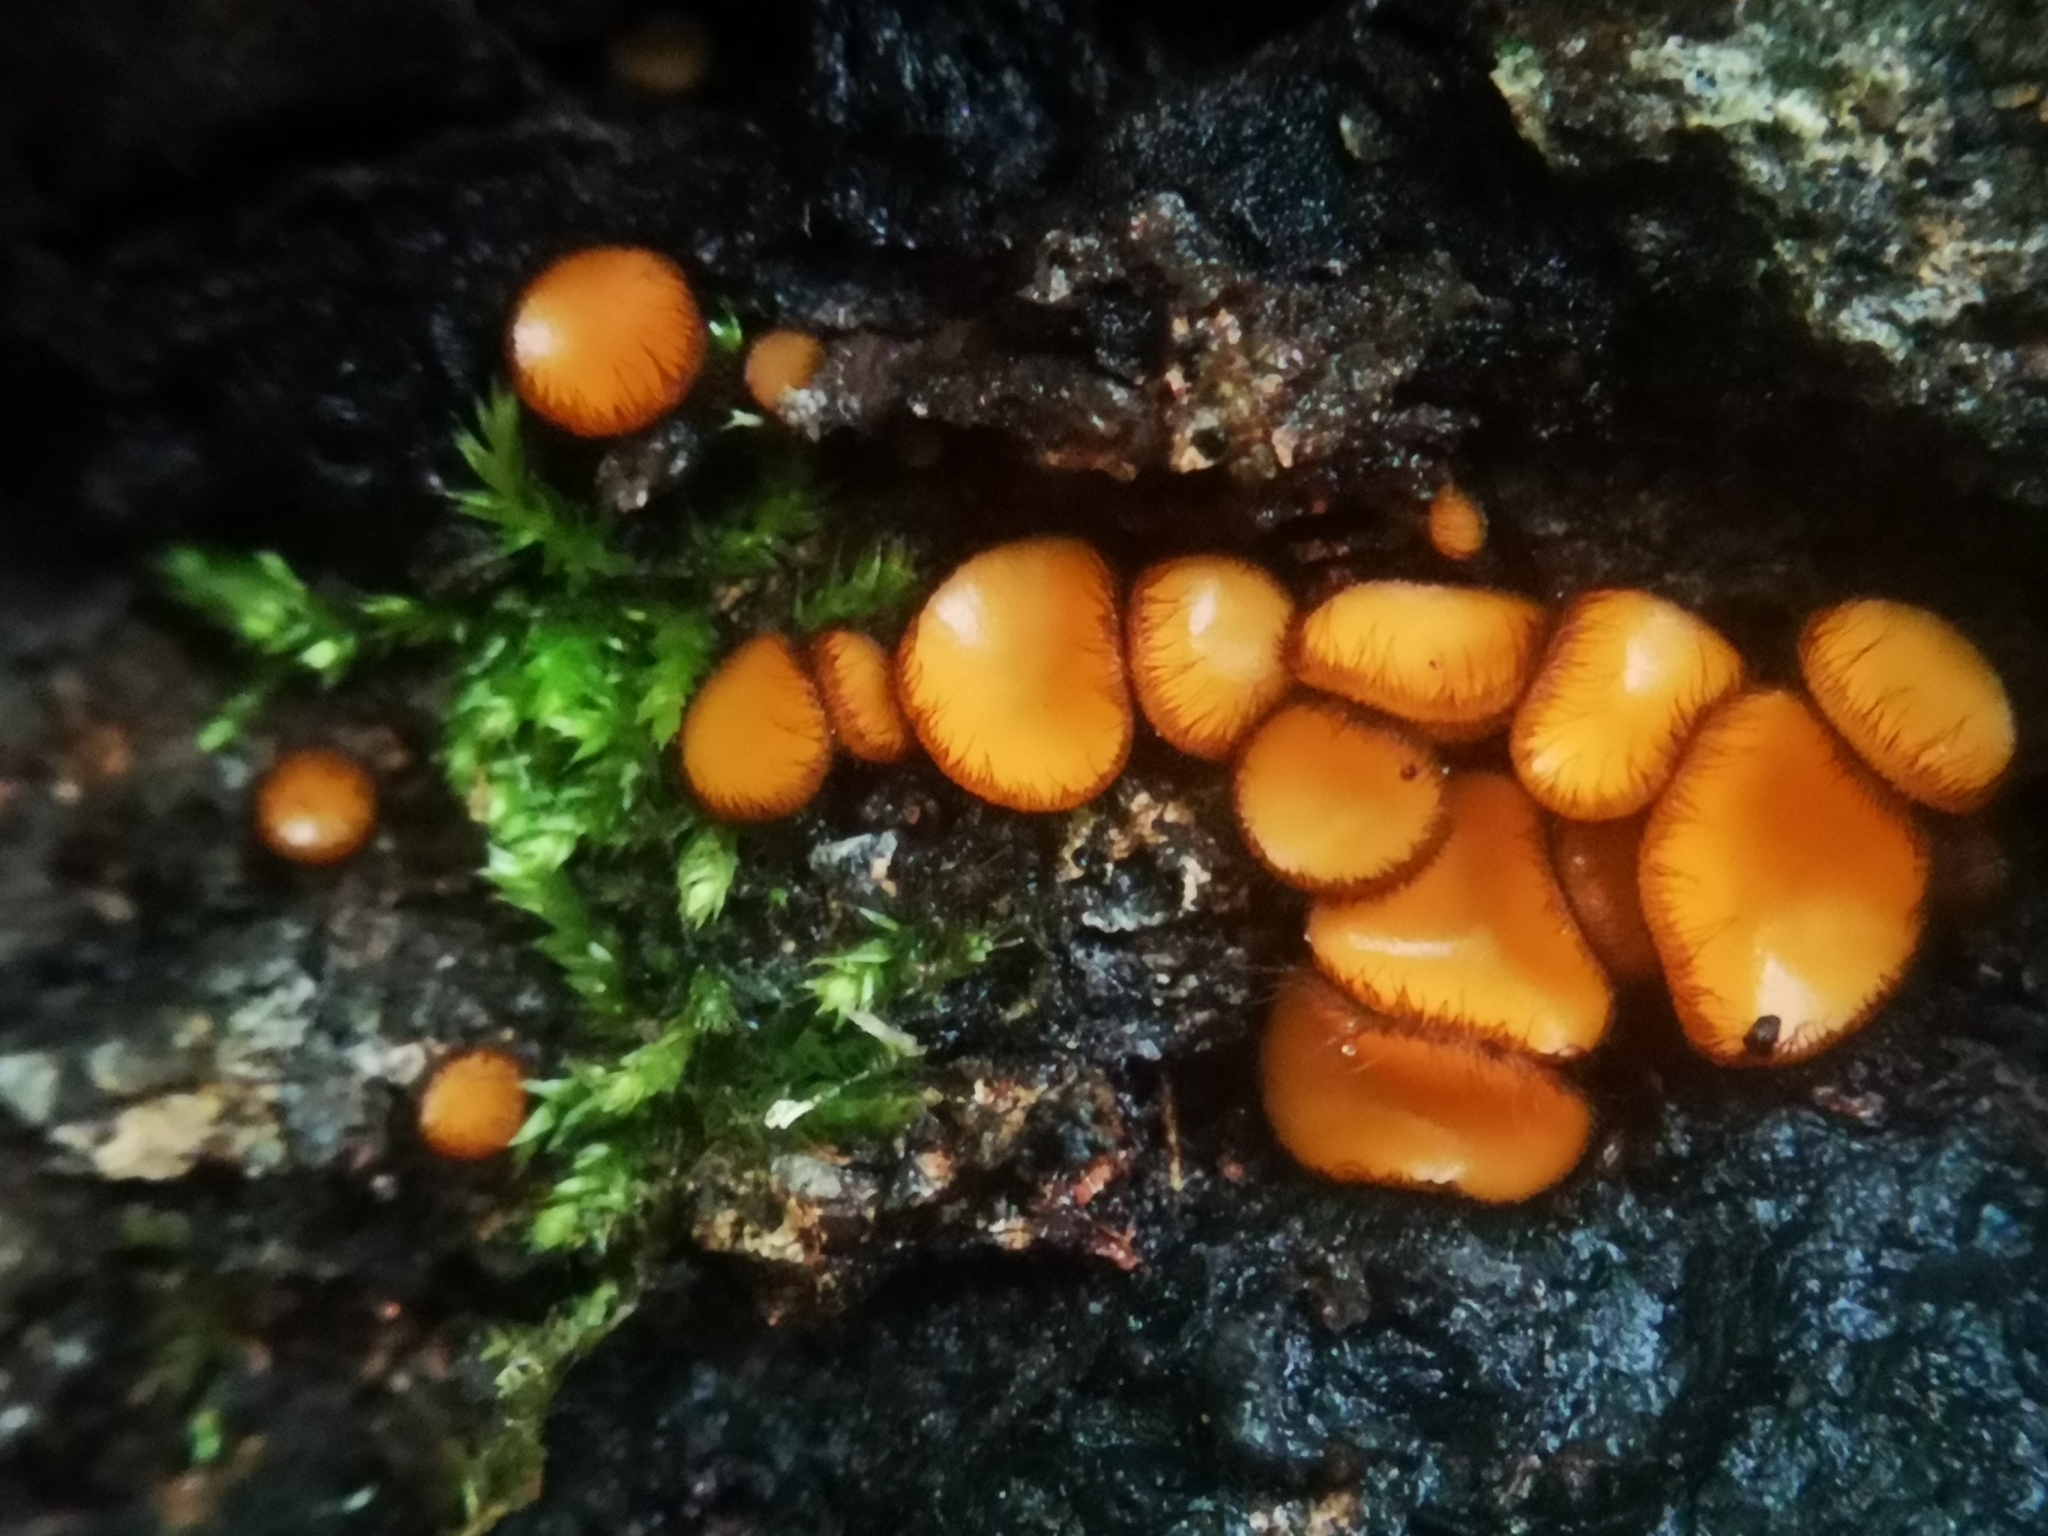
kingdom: Fungi
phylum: Ascomycota
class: Pezizomycetes
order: Pezizales
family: Pyronemataceae
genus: Scutellinia
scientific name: Scutellinia
